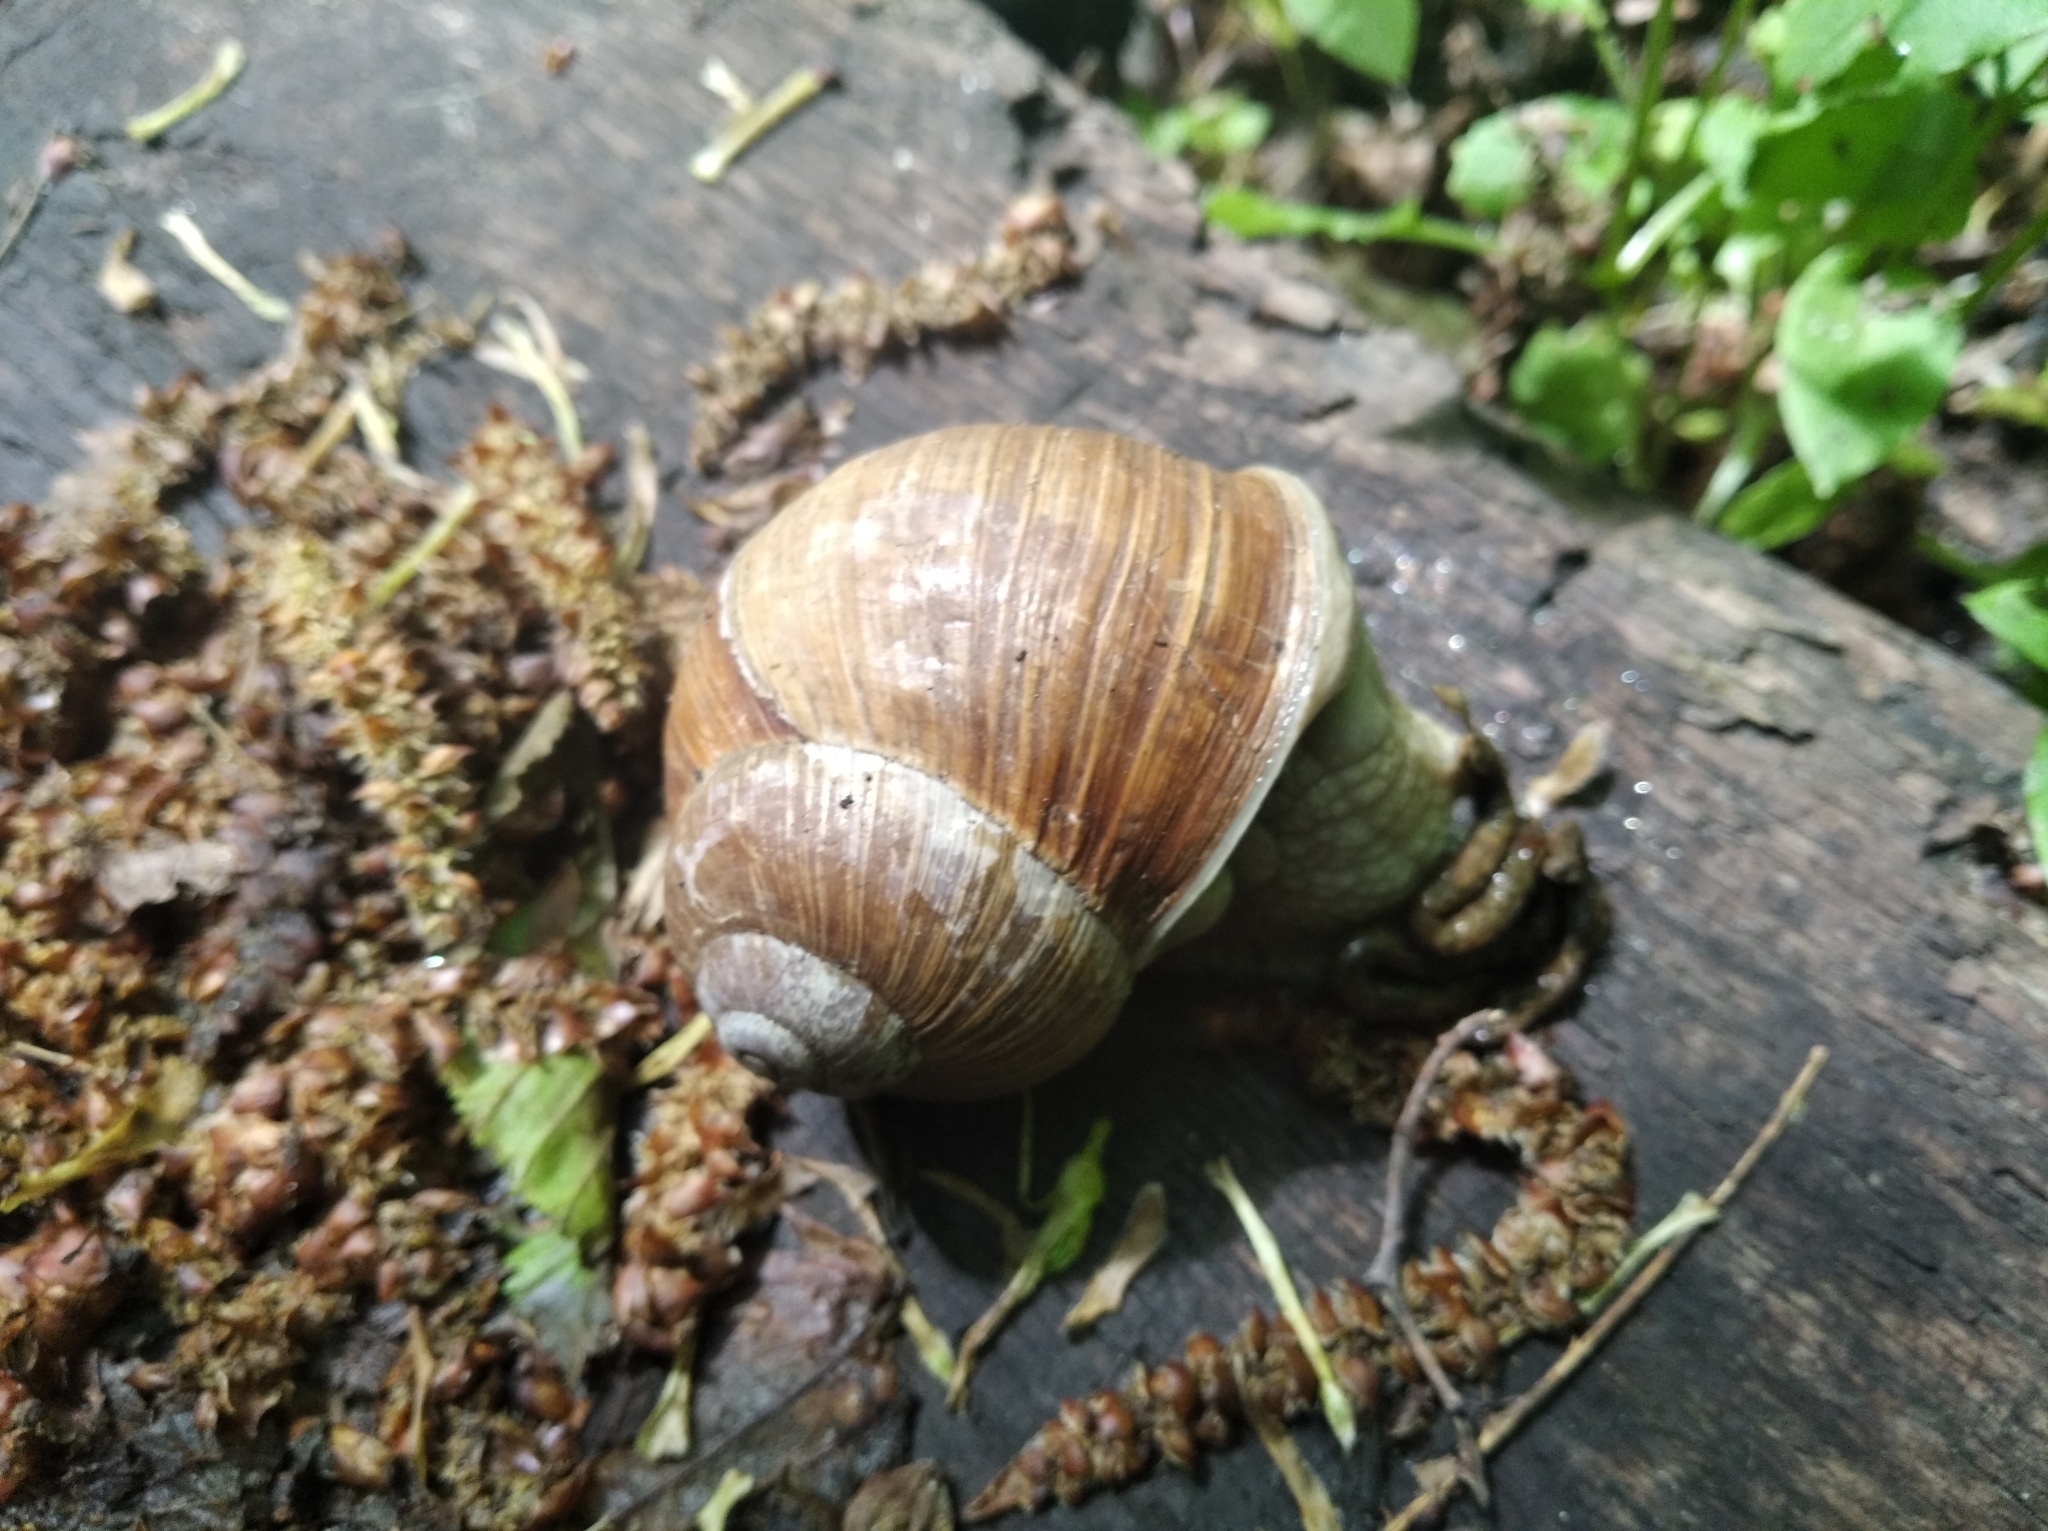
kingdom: Animalia
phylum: Mollusca
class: Gastropoda
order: Stylommatophora
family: Helicidae
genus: Helix
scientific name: Helix pomatia
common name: Roman snail
